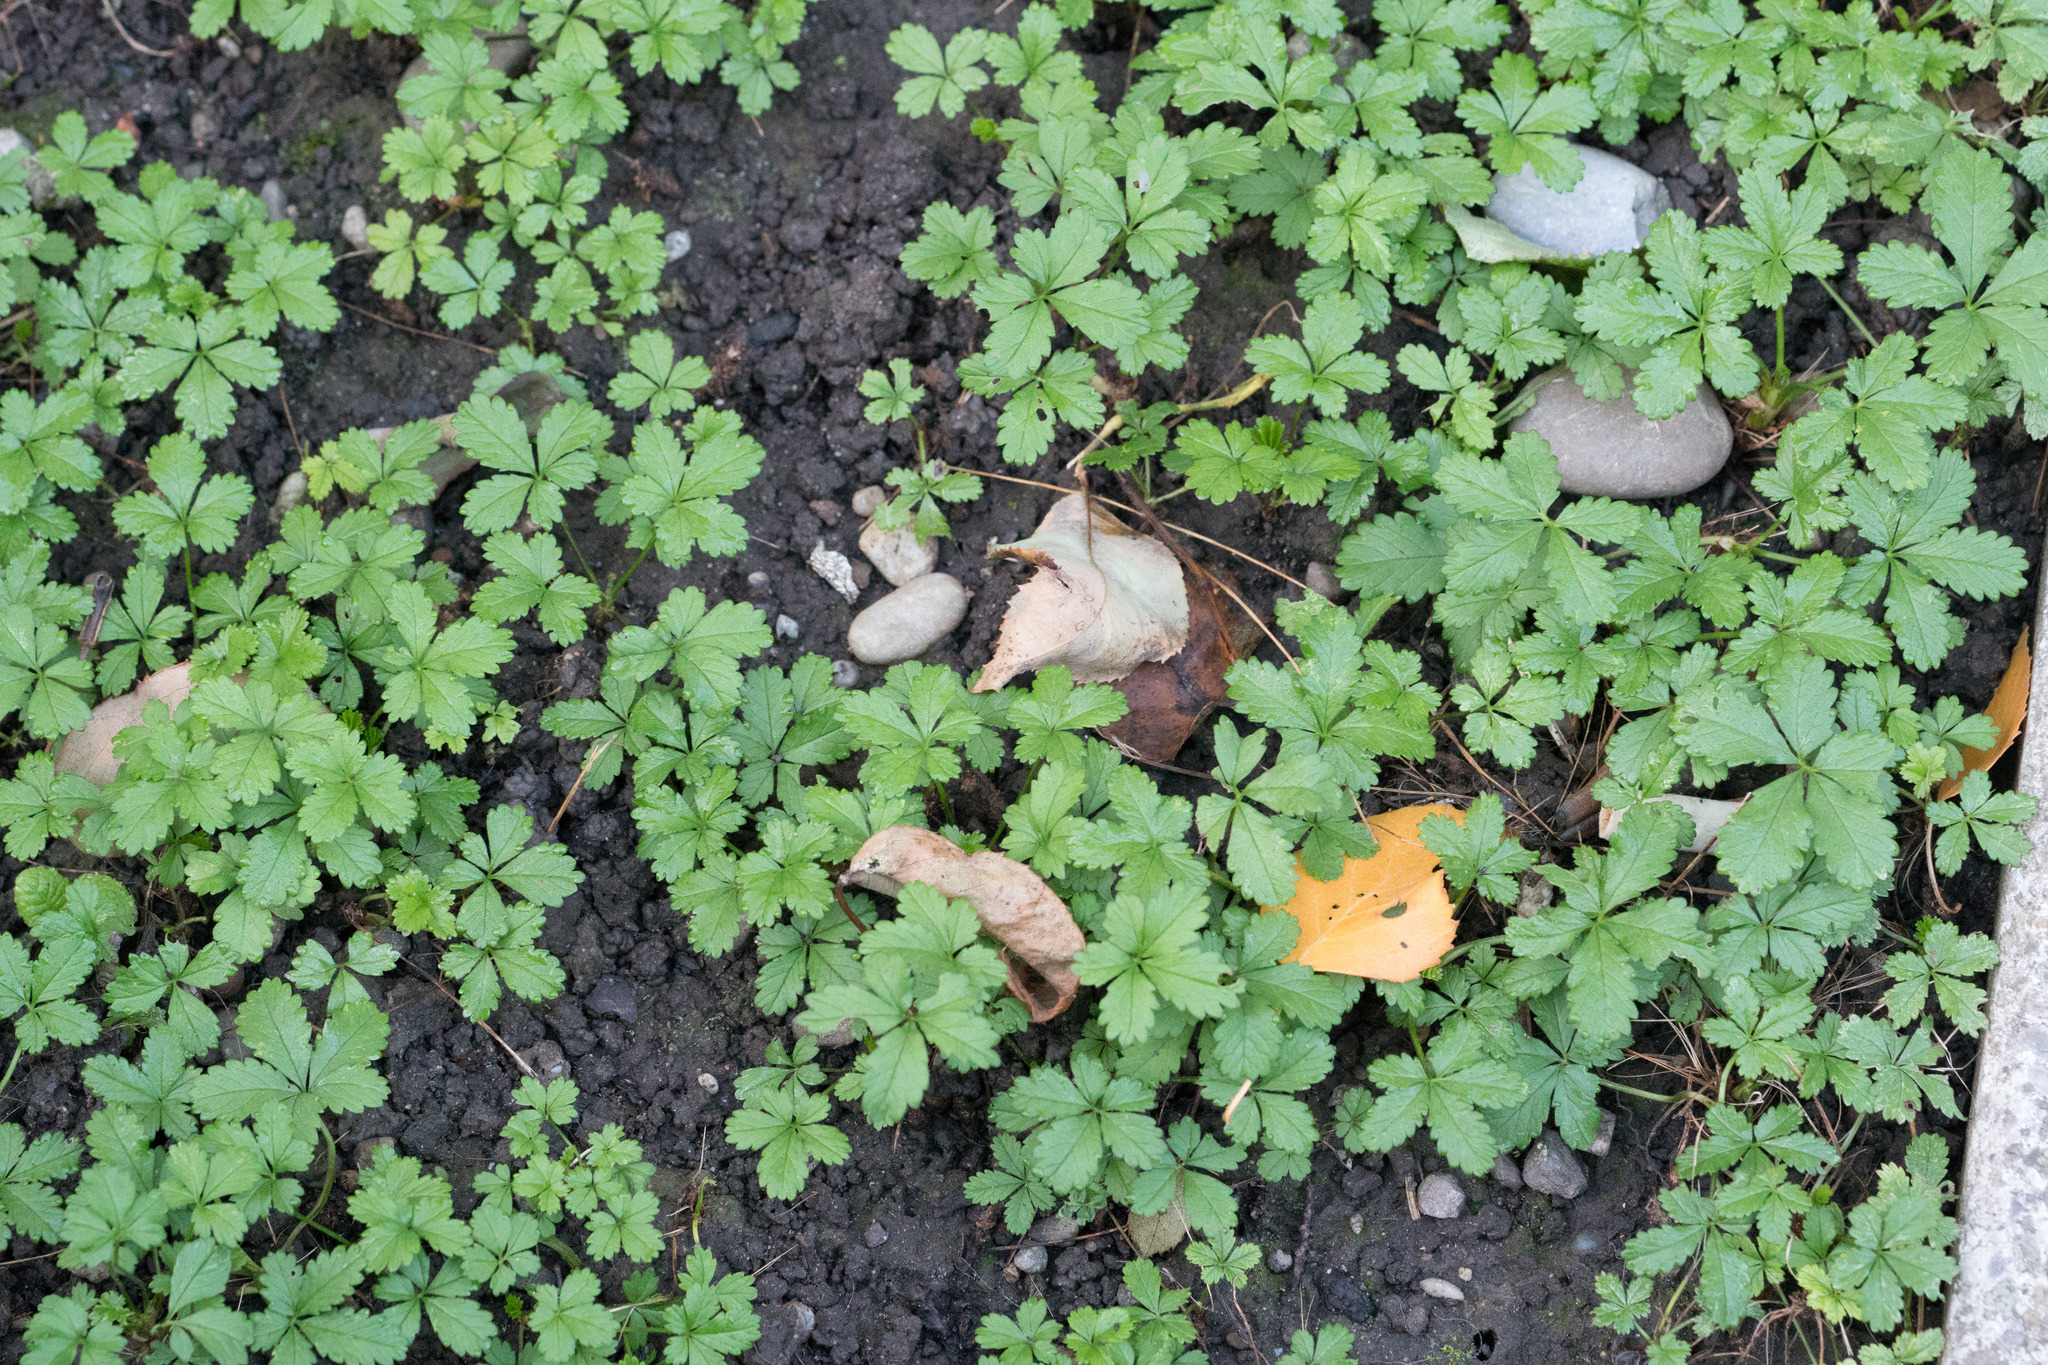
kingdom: Plantae
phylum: Tracheophyta
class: Magnoliopsida
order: Rosales
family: Rosaceae
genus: Potentilla
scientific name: Potentilla reptans
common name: Creeping cinquefoil
